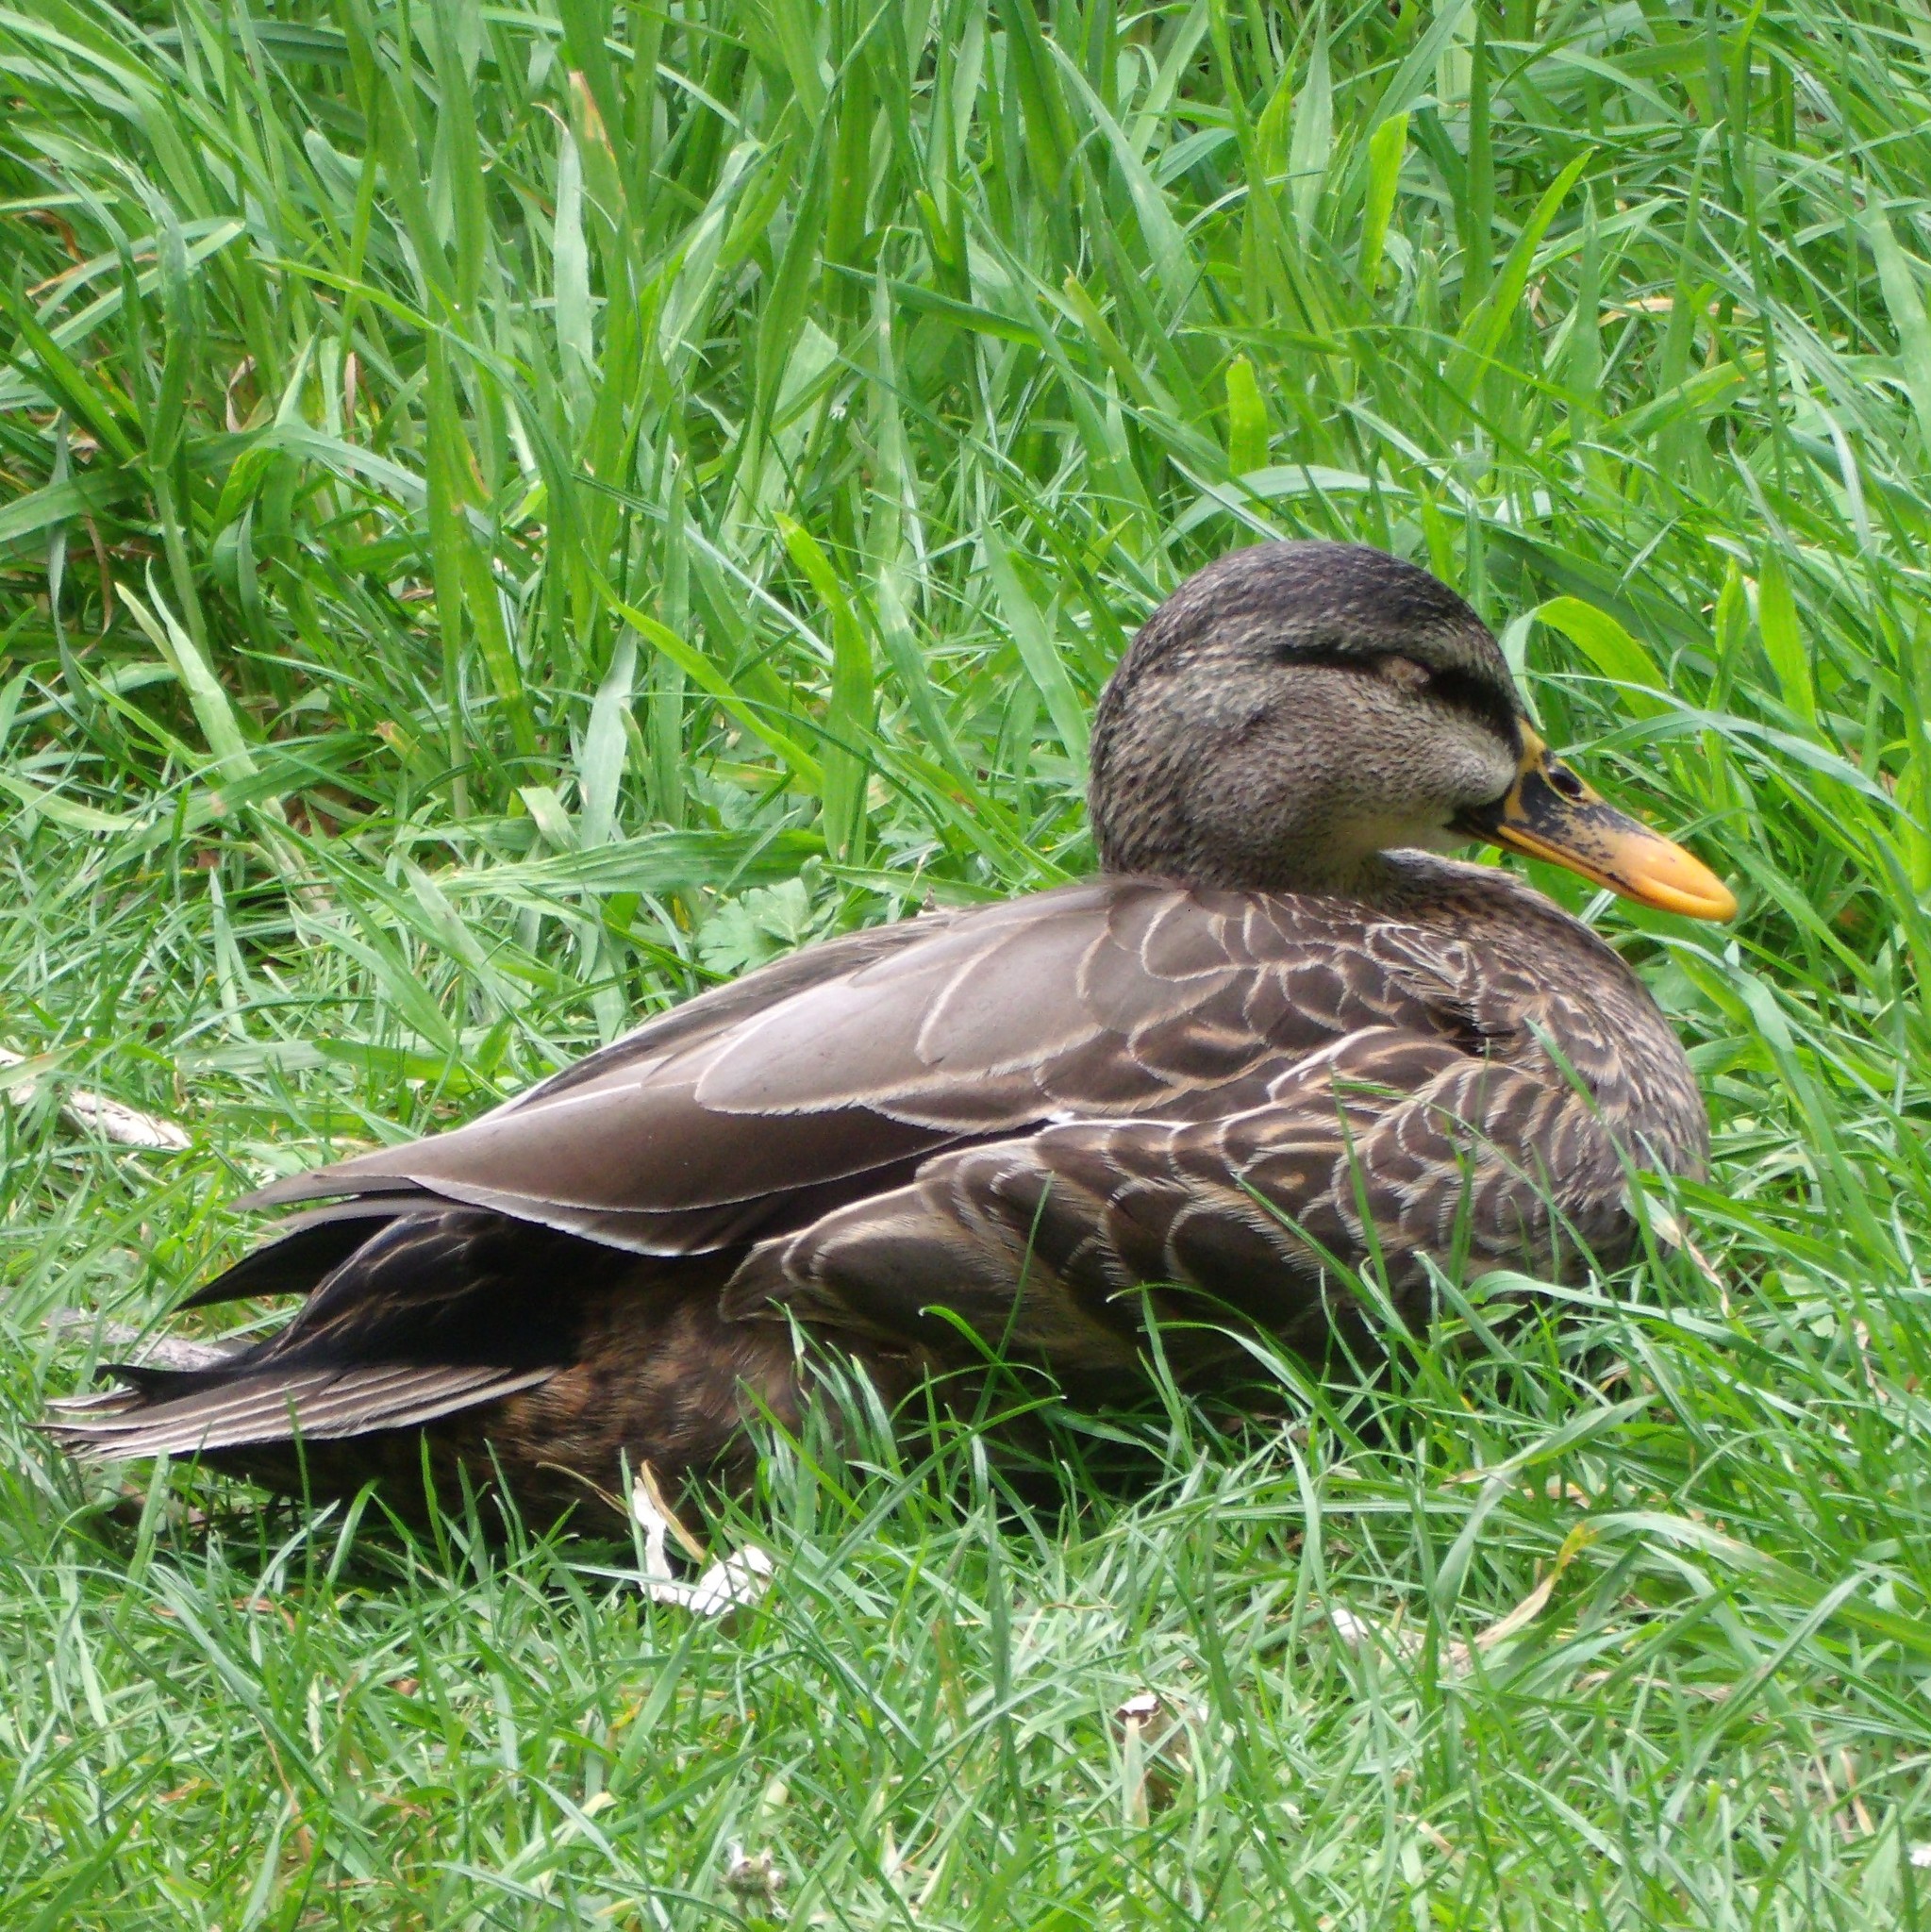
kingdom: Animalia
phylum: Chordata
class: Aves
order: Anseriformes
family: Anatidae
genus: Anas
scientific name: Anas
